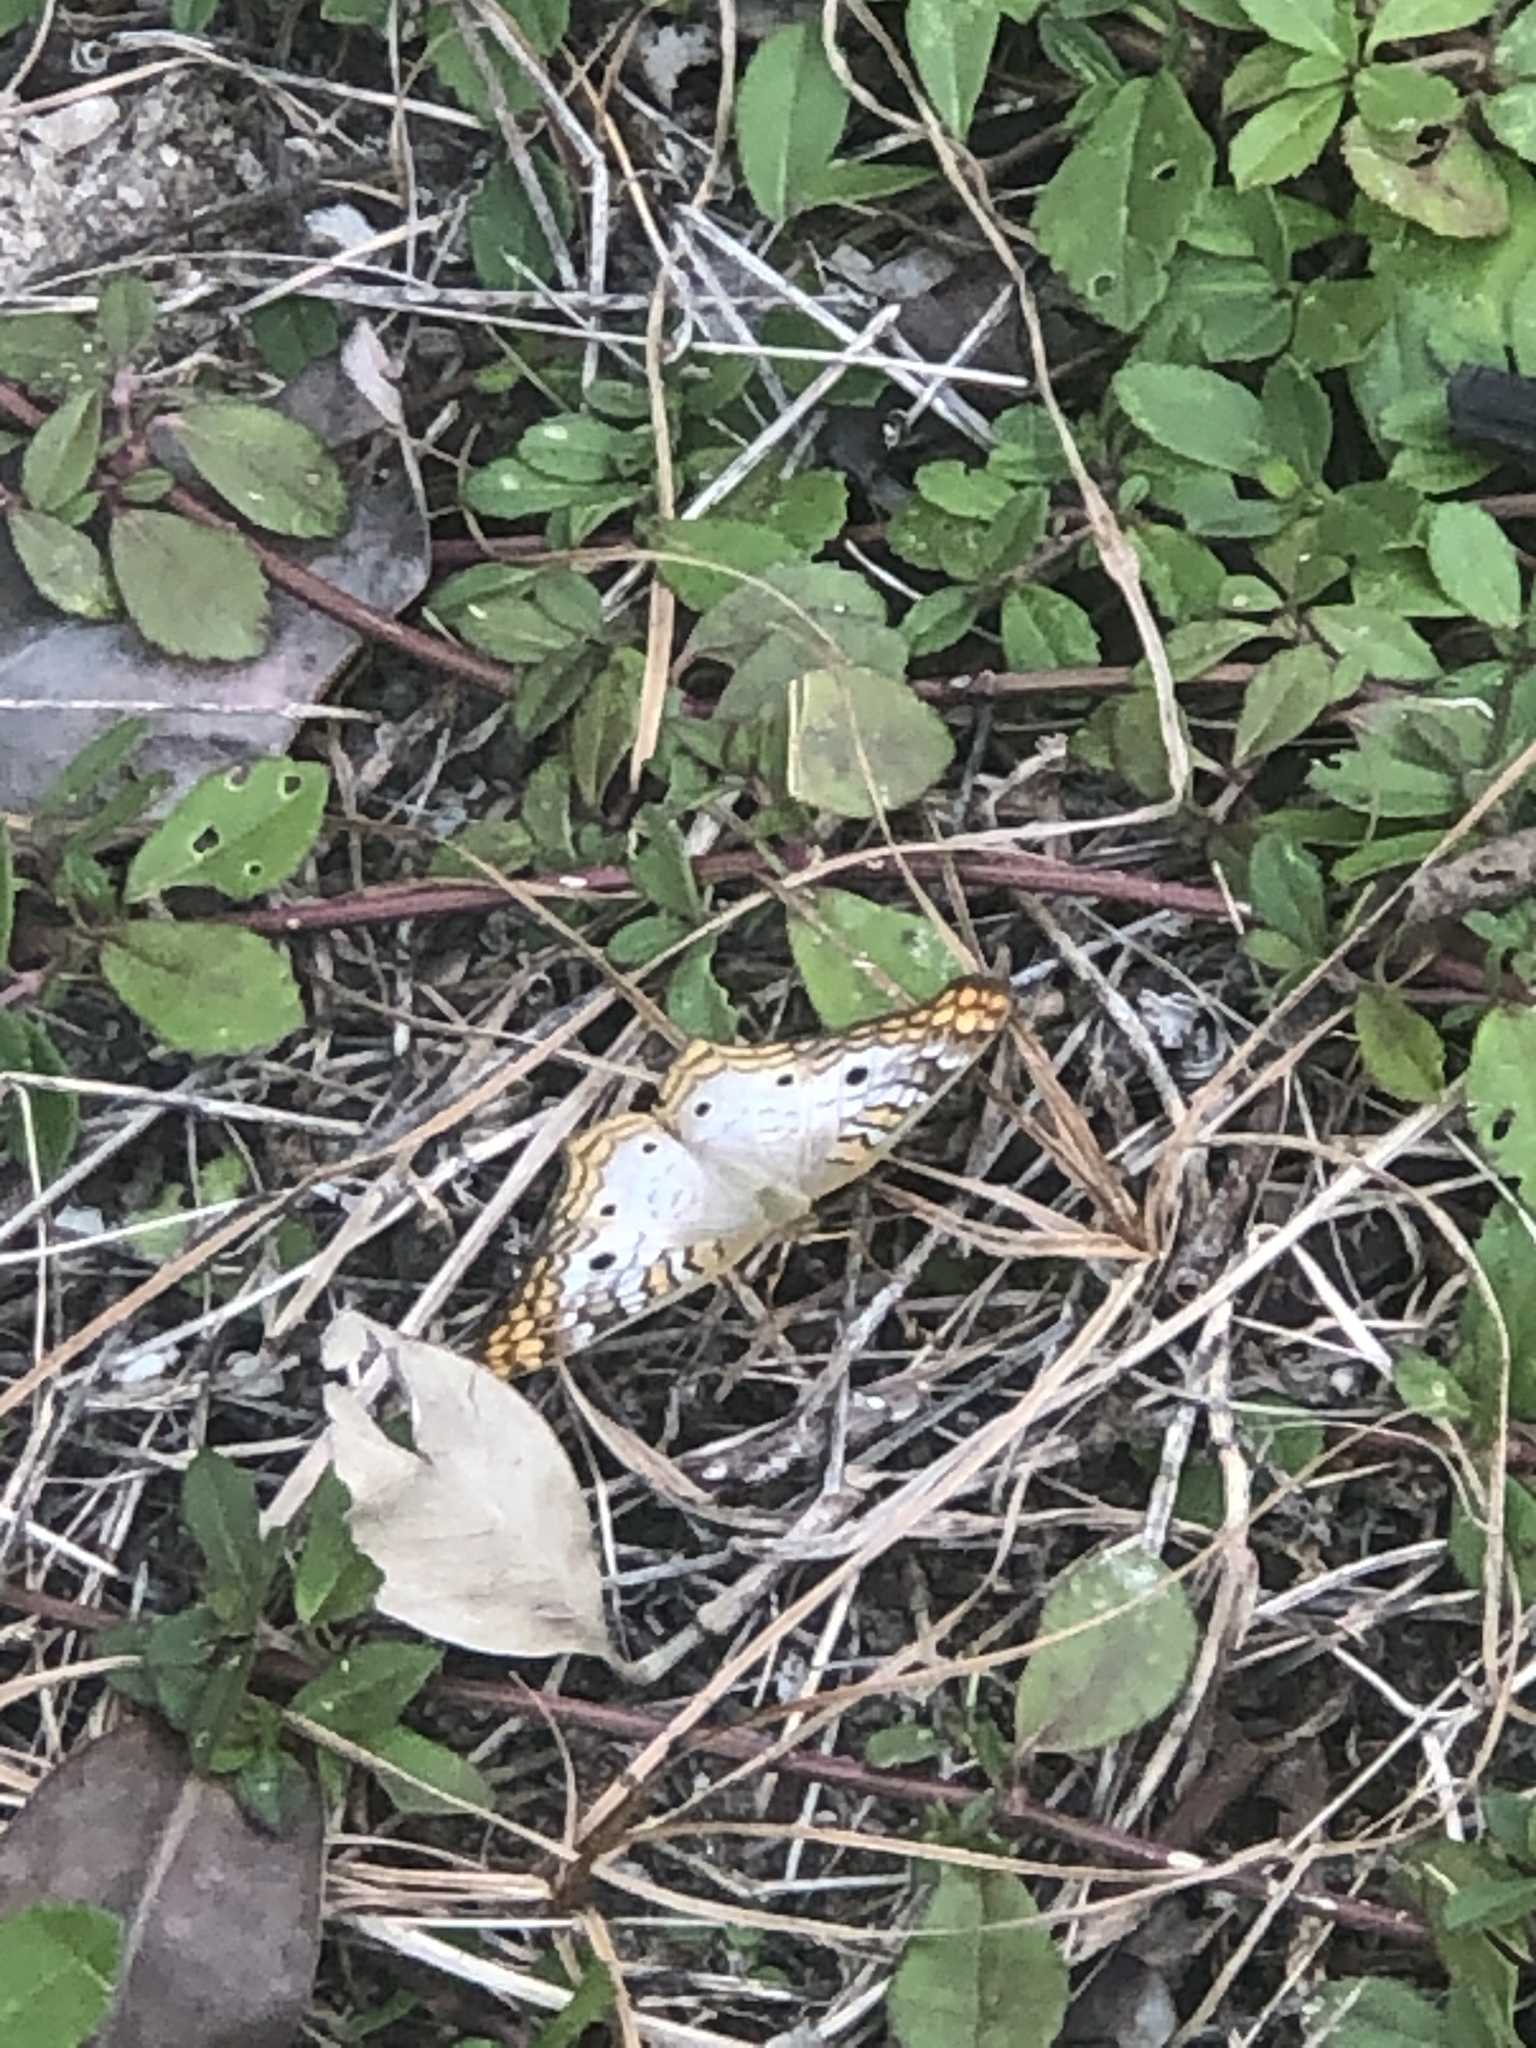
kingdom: Animalia
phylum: Arthropoda
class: Insecta
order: Lepidoptera
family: Nymphalidae
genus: Anartia
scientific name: Anartia jatrophae
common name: White peacock
